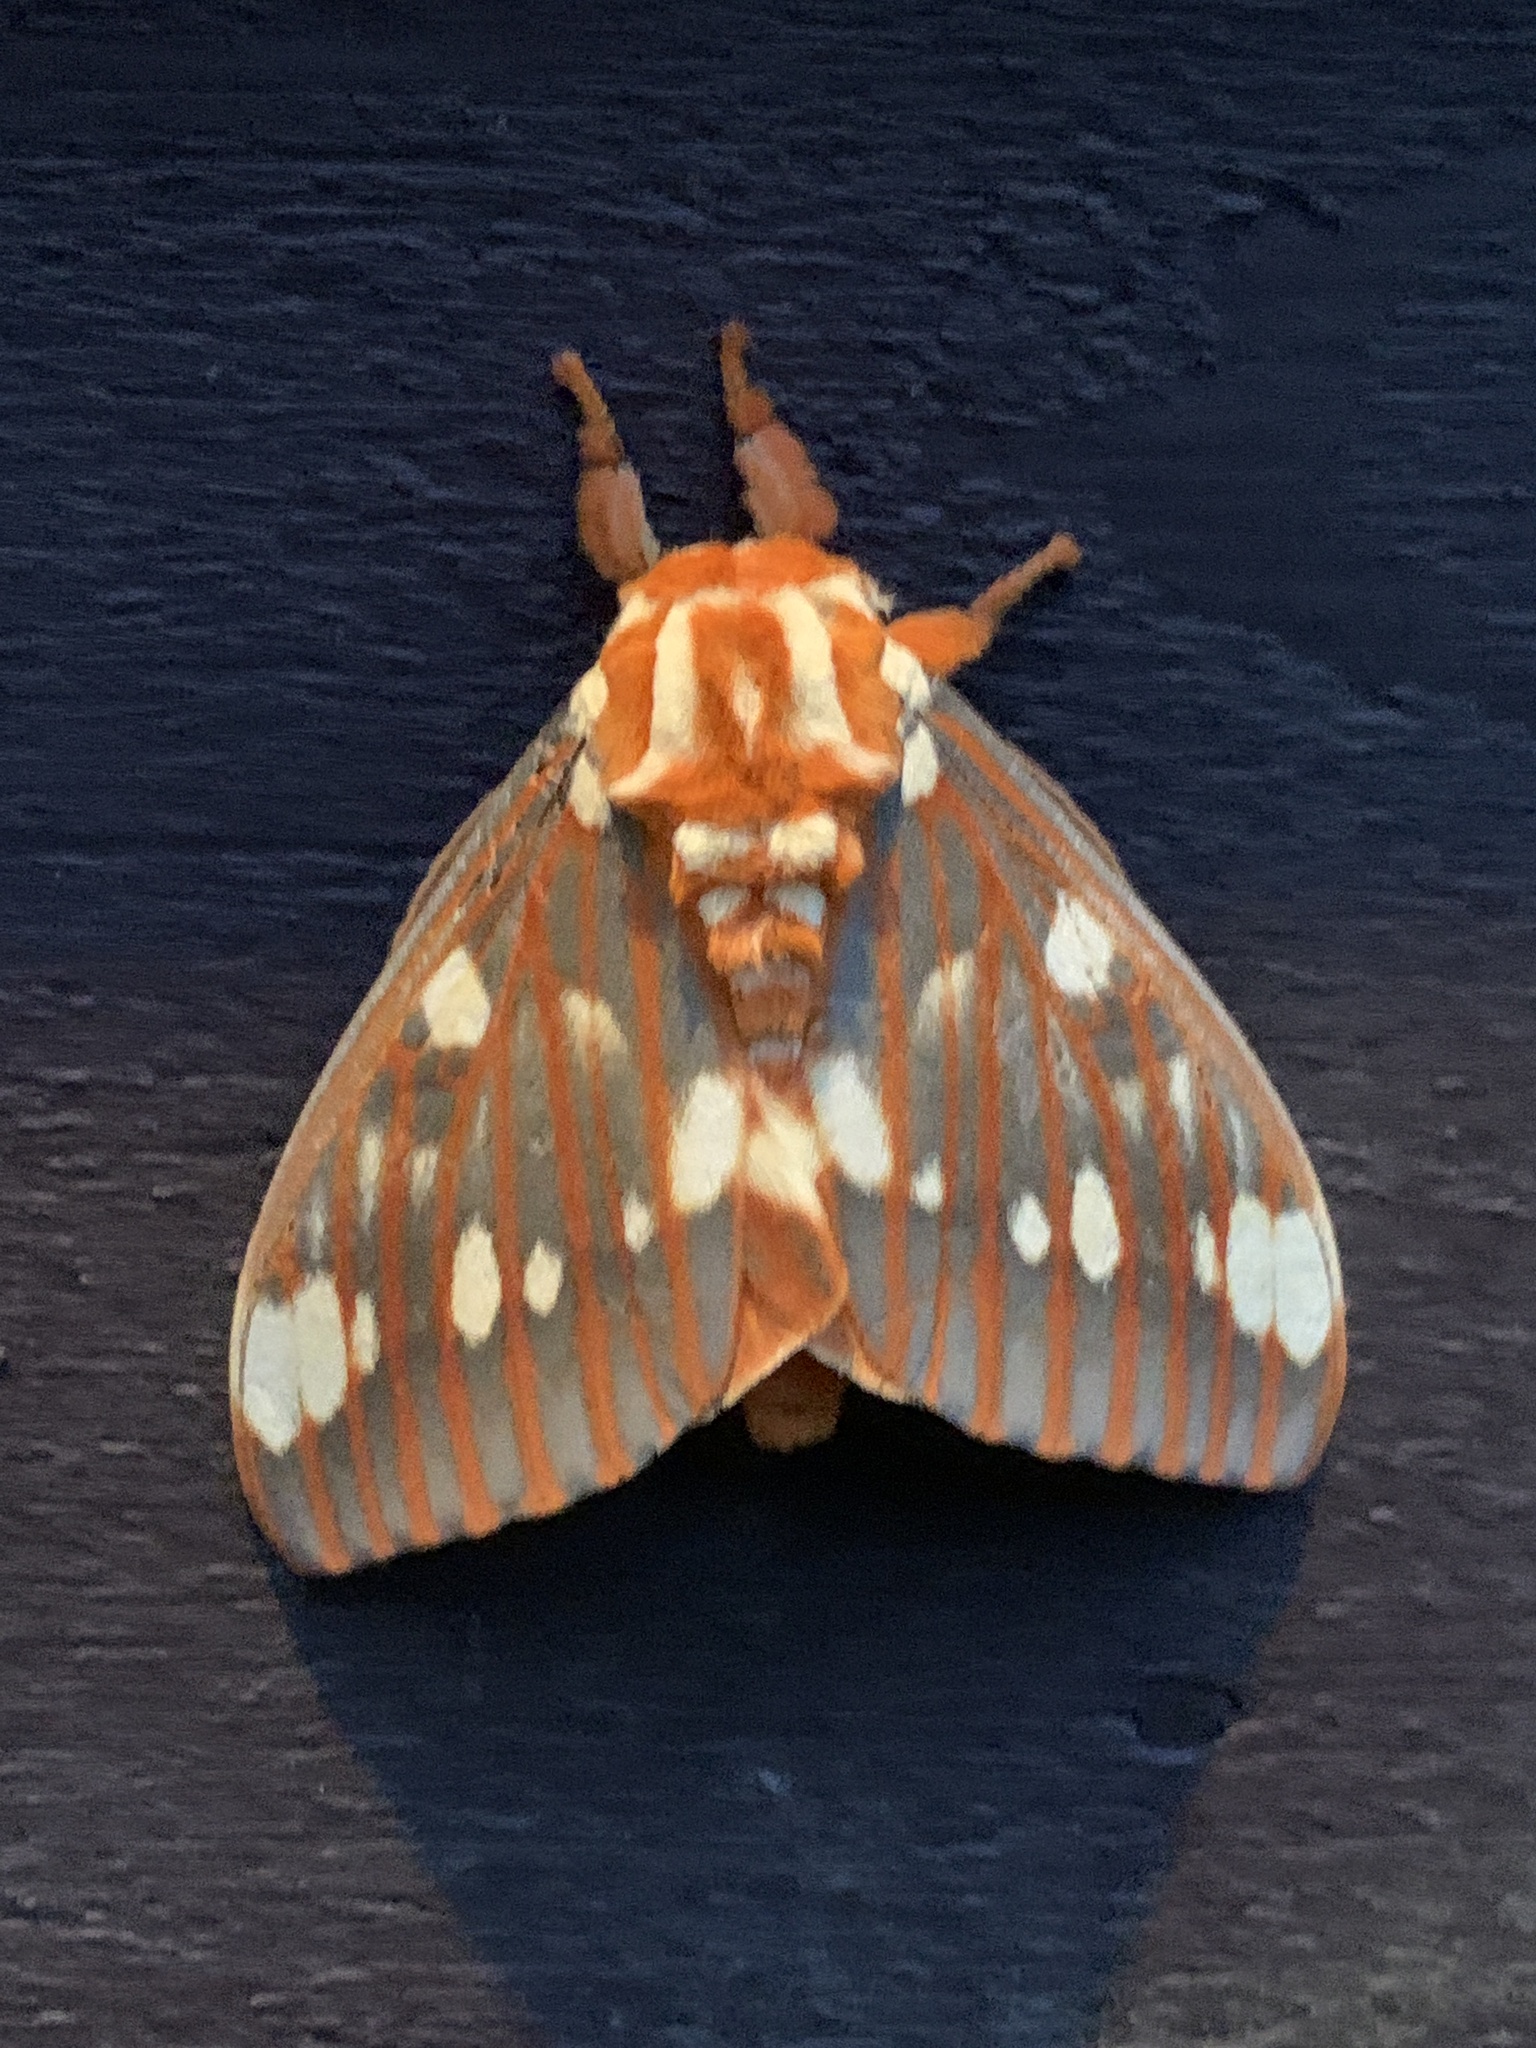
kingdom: Animalia
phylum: Arthropoda
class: Insecta
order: Lepidoptera
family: Saturniidae
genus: Citheronia
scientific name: Citheronia regalis
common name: Hickory horned devil
